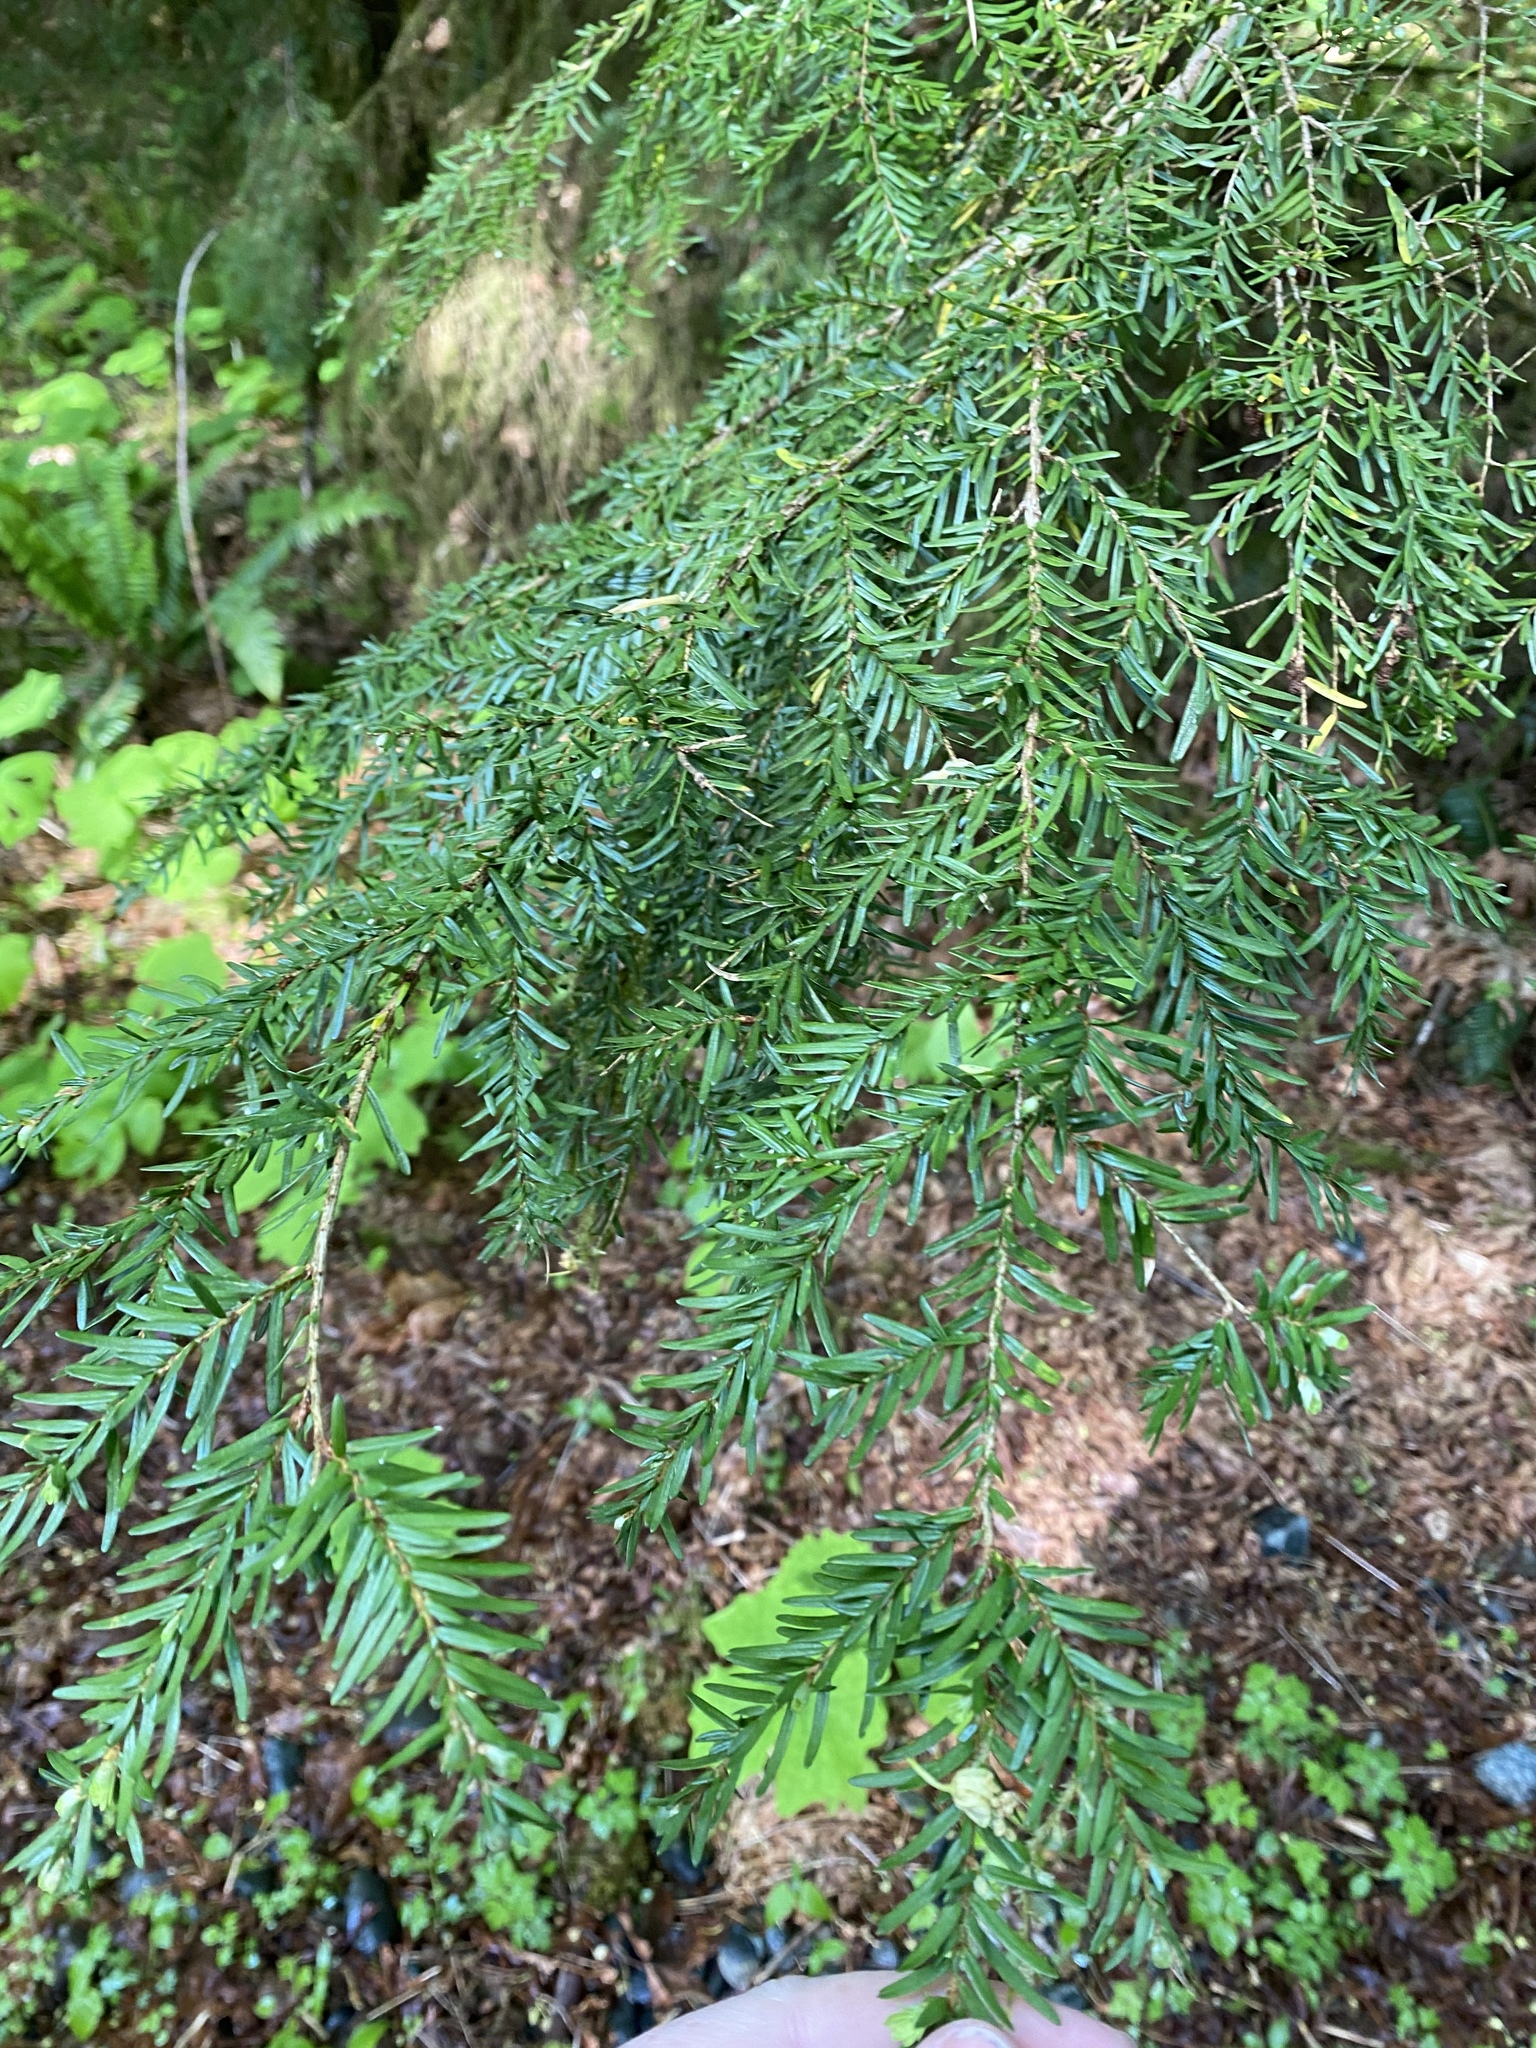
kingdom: Plantae
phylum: Tracheophyta
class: Pinopsida
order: Pinales
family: Pinaceae
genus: Tsuga
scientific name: Tsuga heterophylla
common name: Western hemlock
